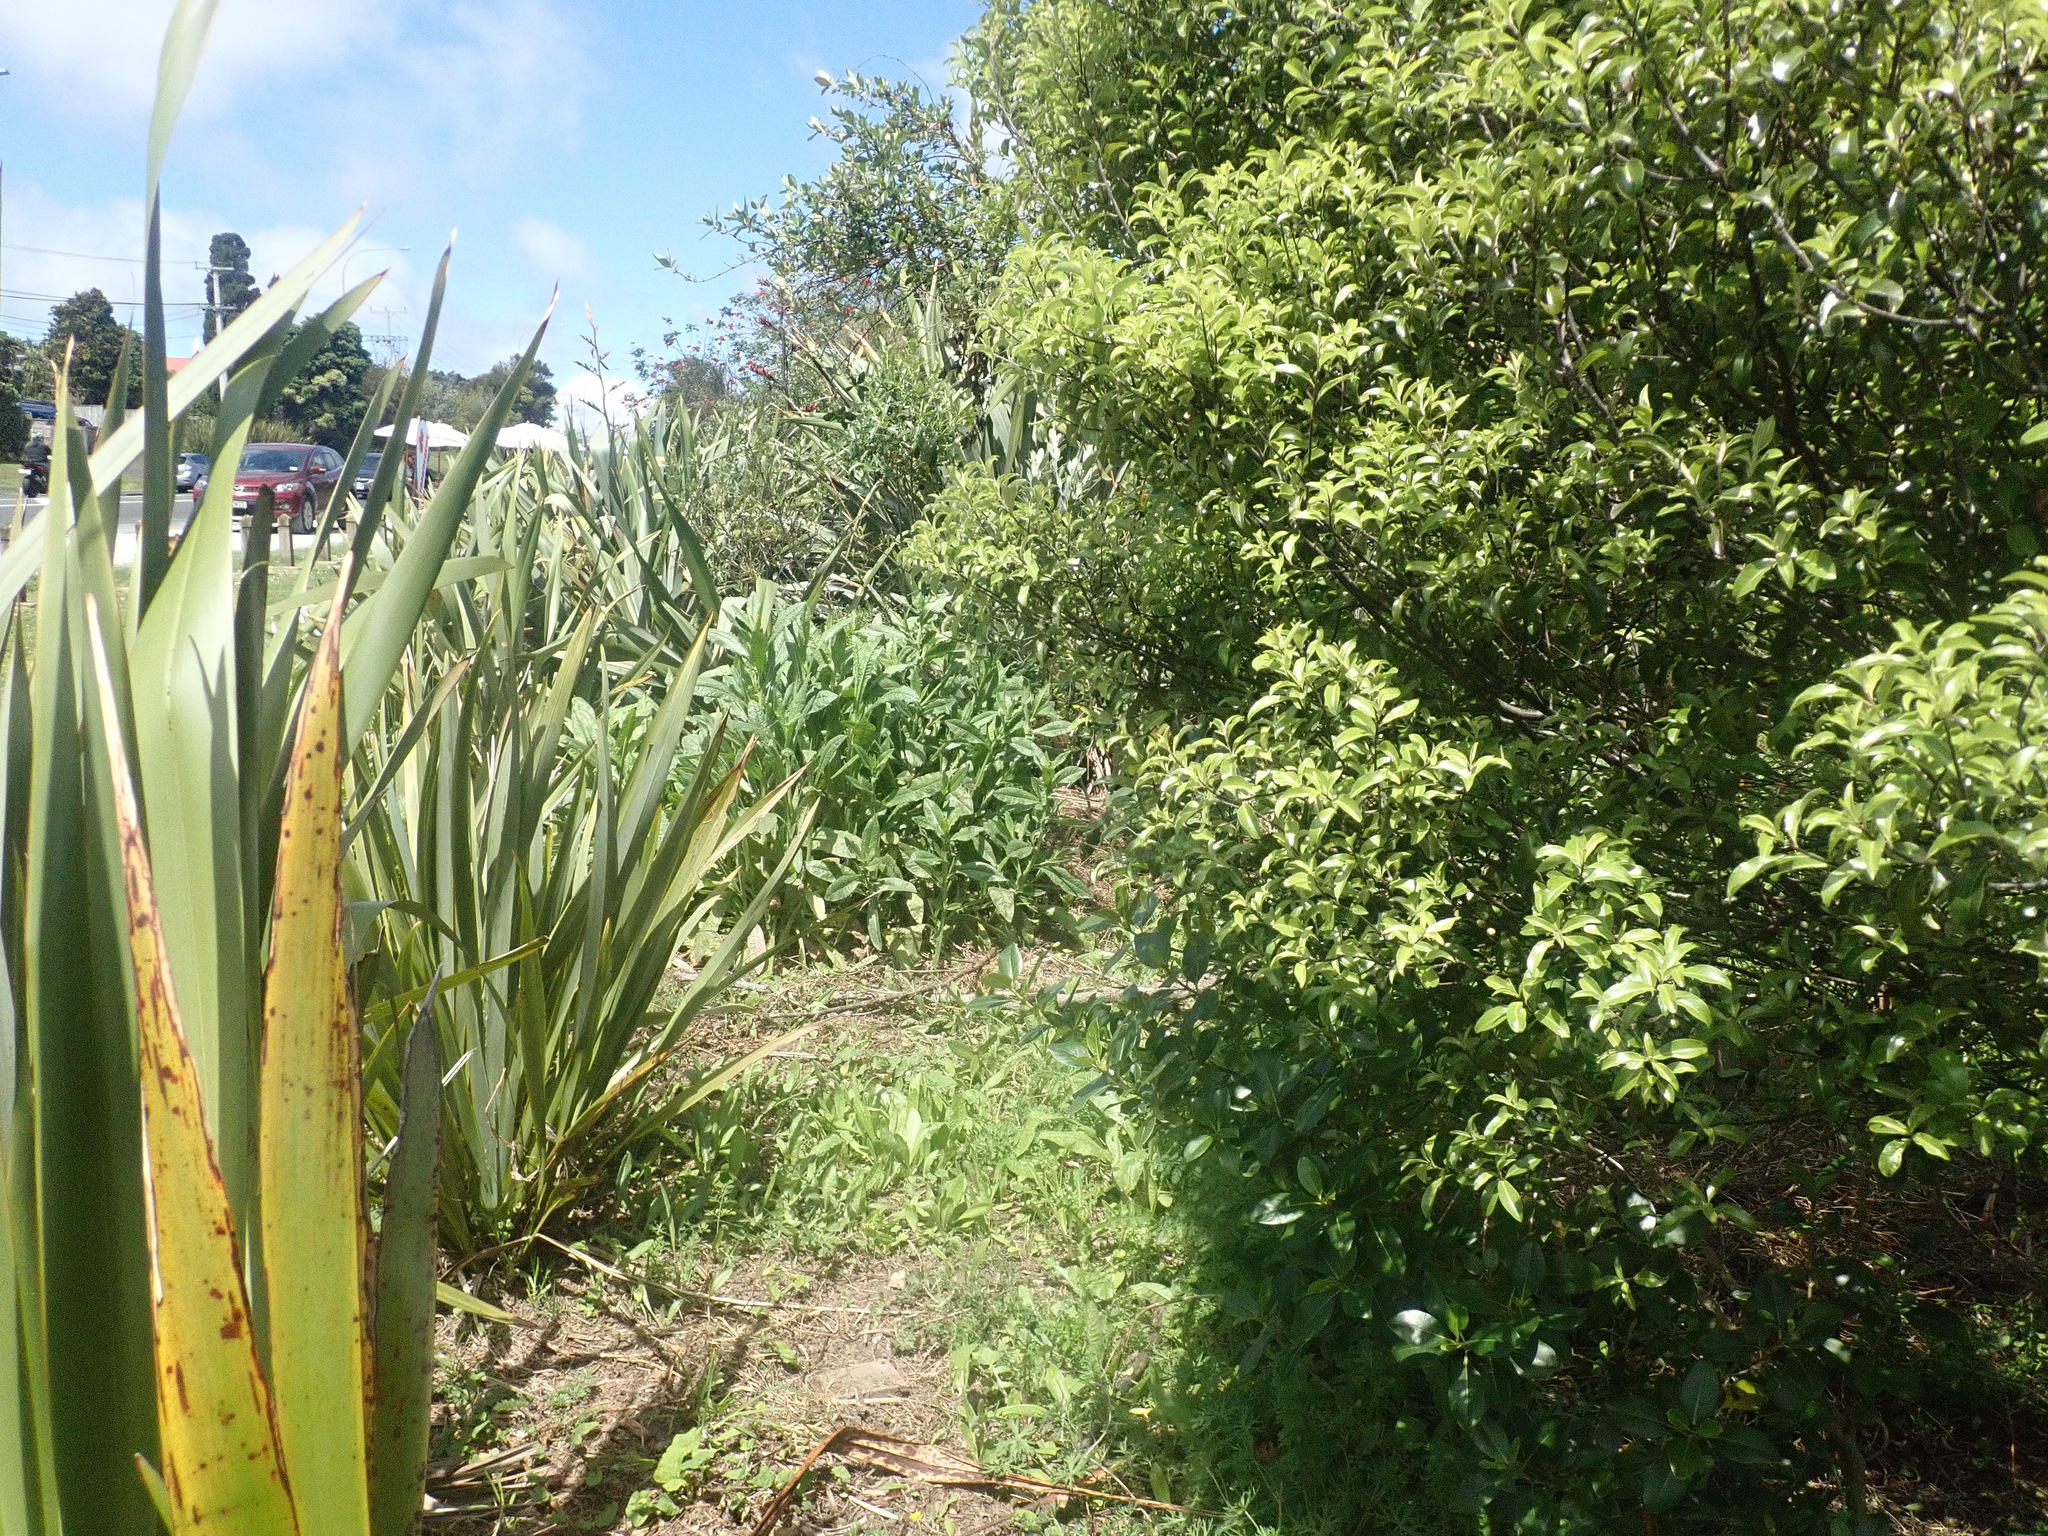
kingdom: Plantae
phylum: Tracheophyta
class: Magnoliopsida
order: Apiales
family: Pittosporaceae
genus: Pittosporum
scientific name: Pittosporum tenuifolium
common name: Kohuhu
